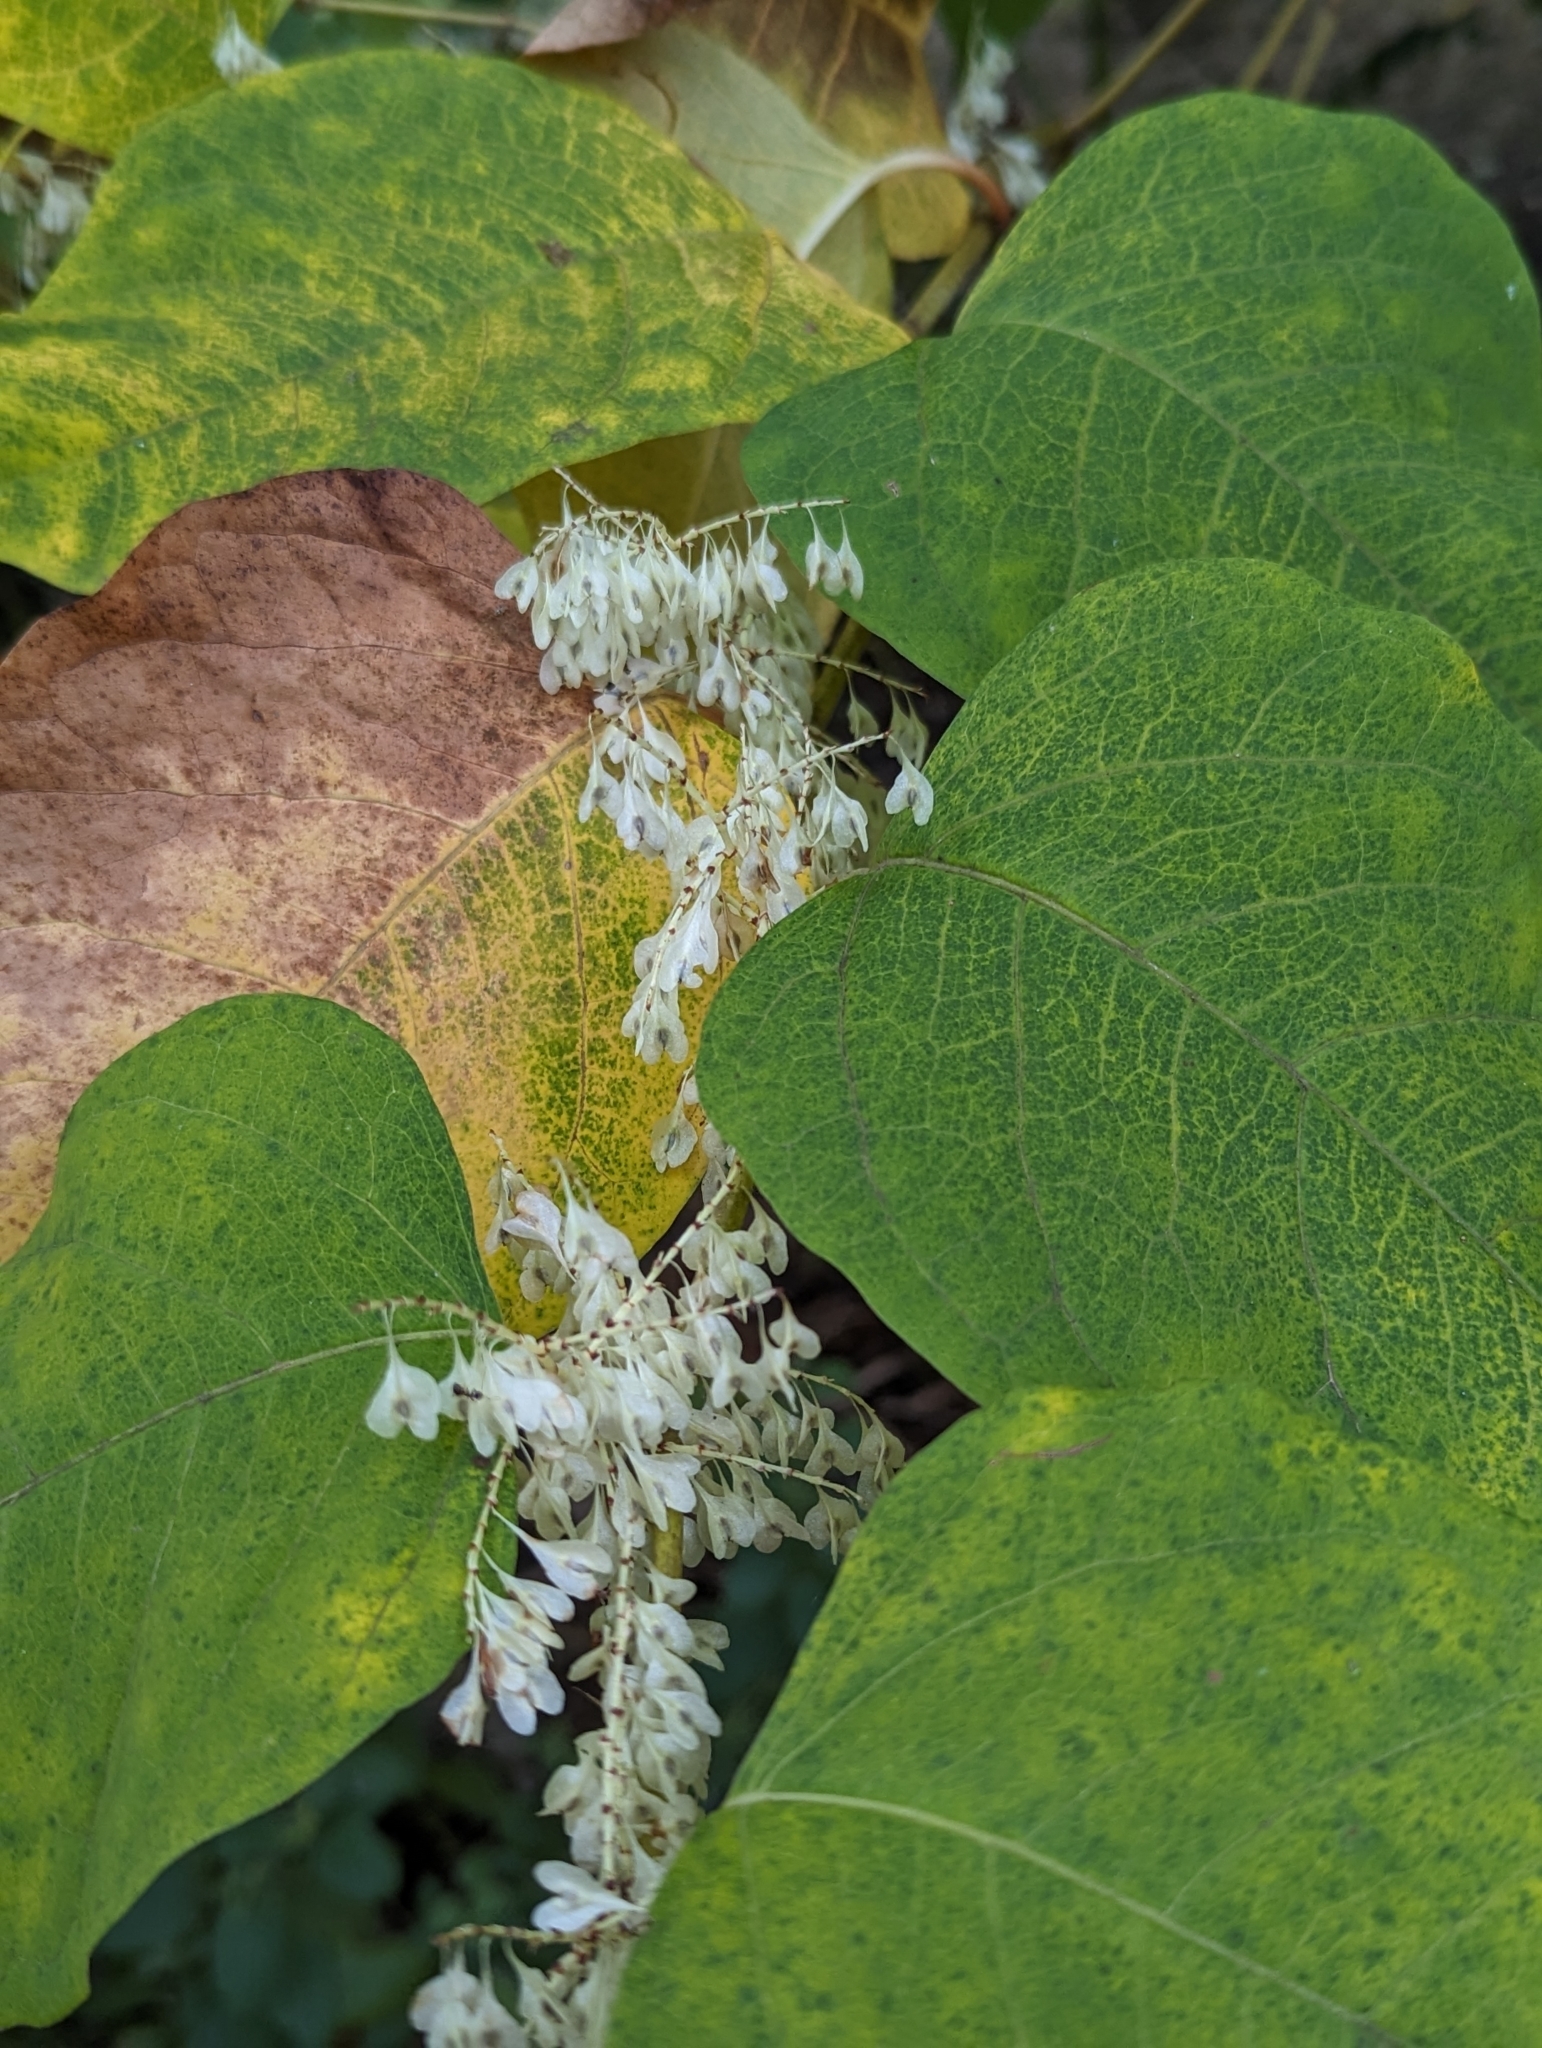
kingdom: Plantae
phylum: Tracheophyta
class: Magnoliopsida
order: Caryophyllales
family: Polygonaceae
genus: Reynoutria
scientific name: Reynoutria japonica
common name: Japanese knotweed
